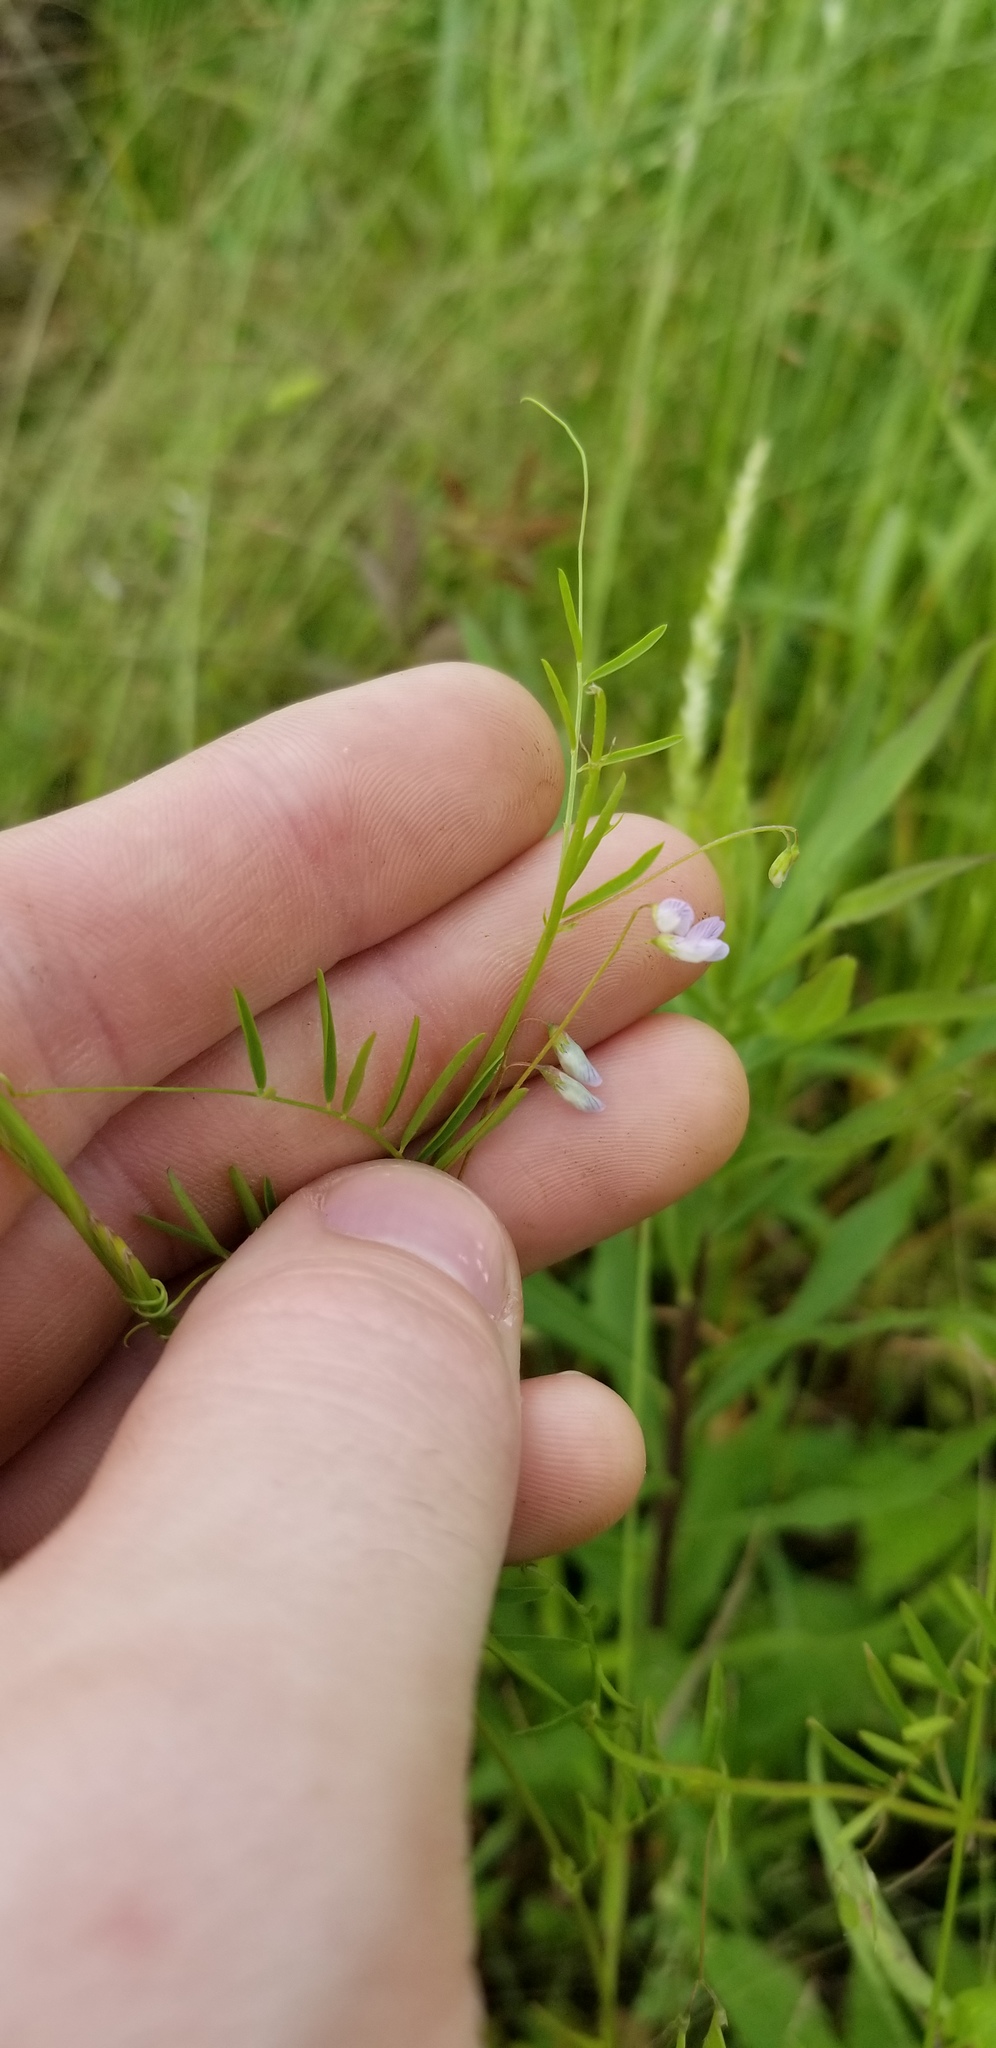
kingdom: Plantae
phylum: Tracheophyta
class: Magnoliopsida
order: Fabales
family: Fabaceae
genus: Vicia
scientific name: Vicia tetrasperma
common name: Smooth tare
